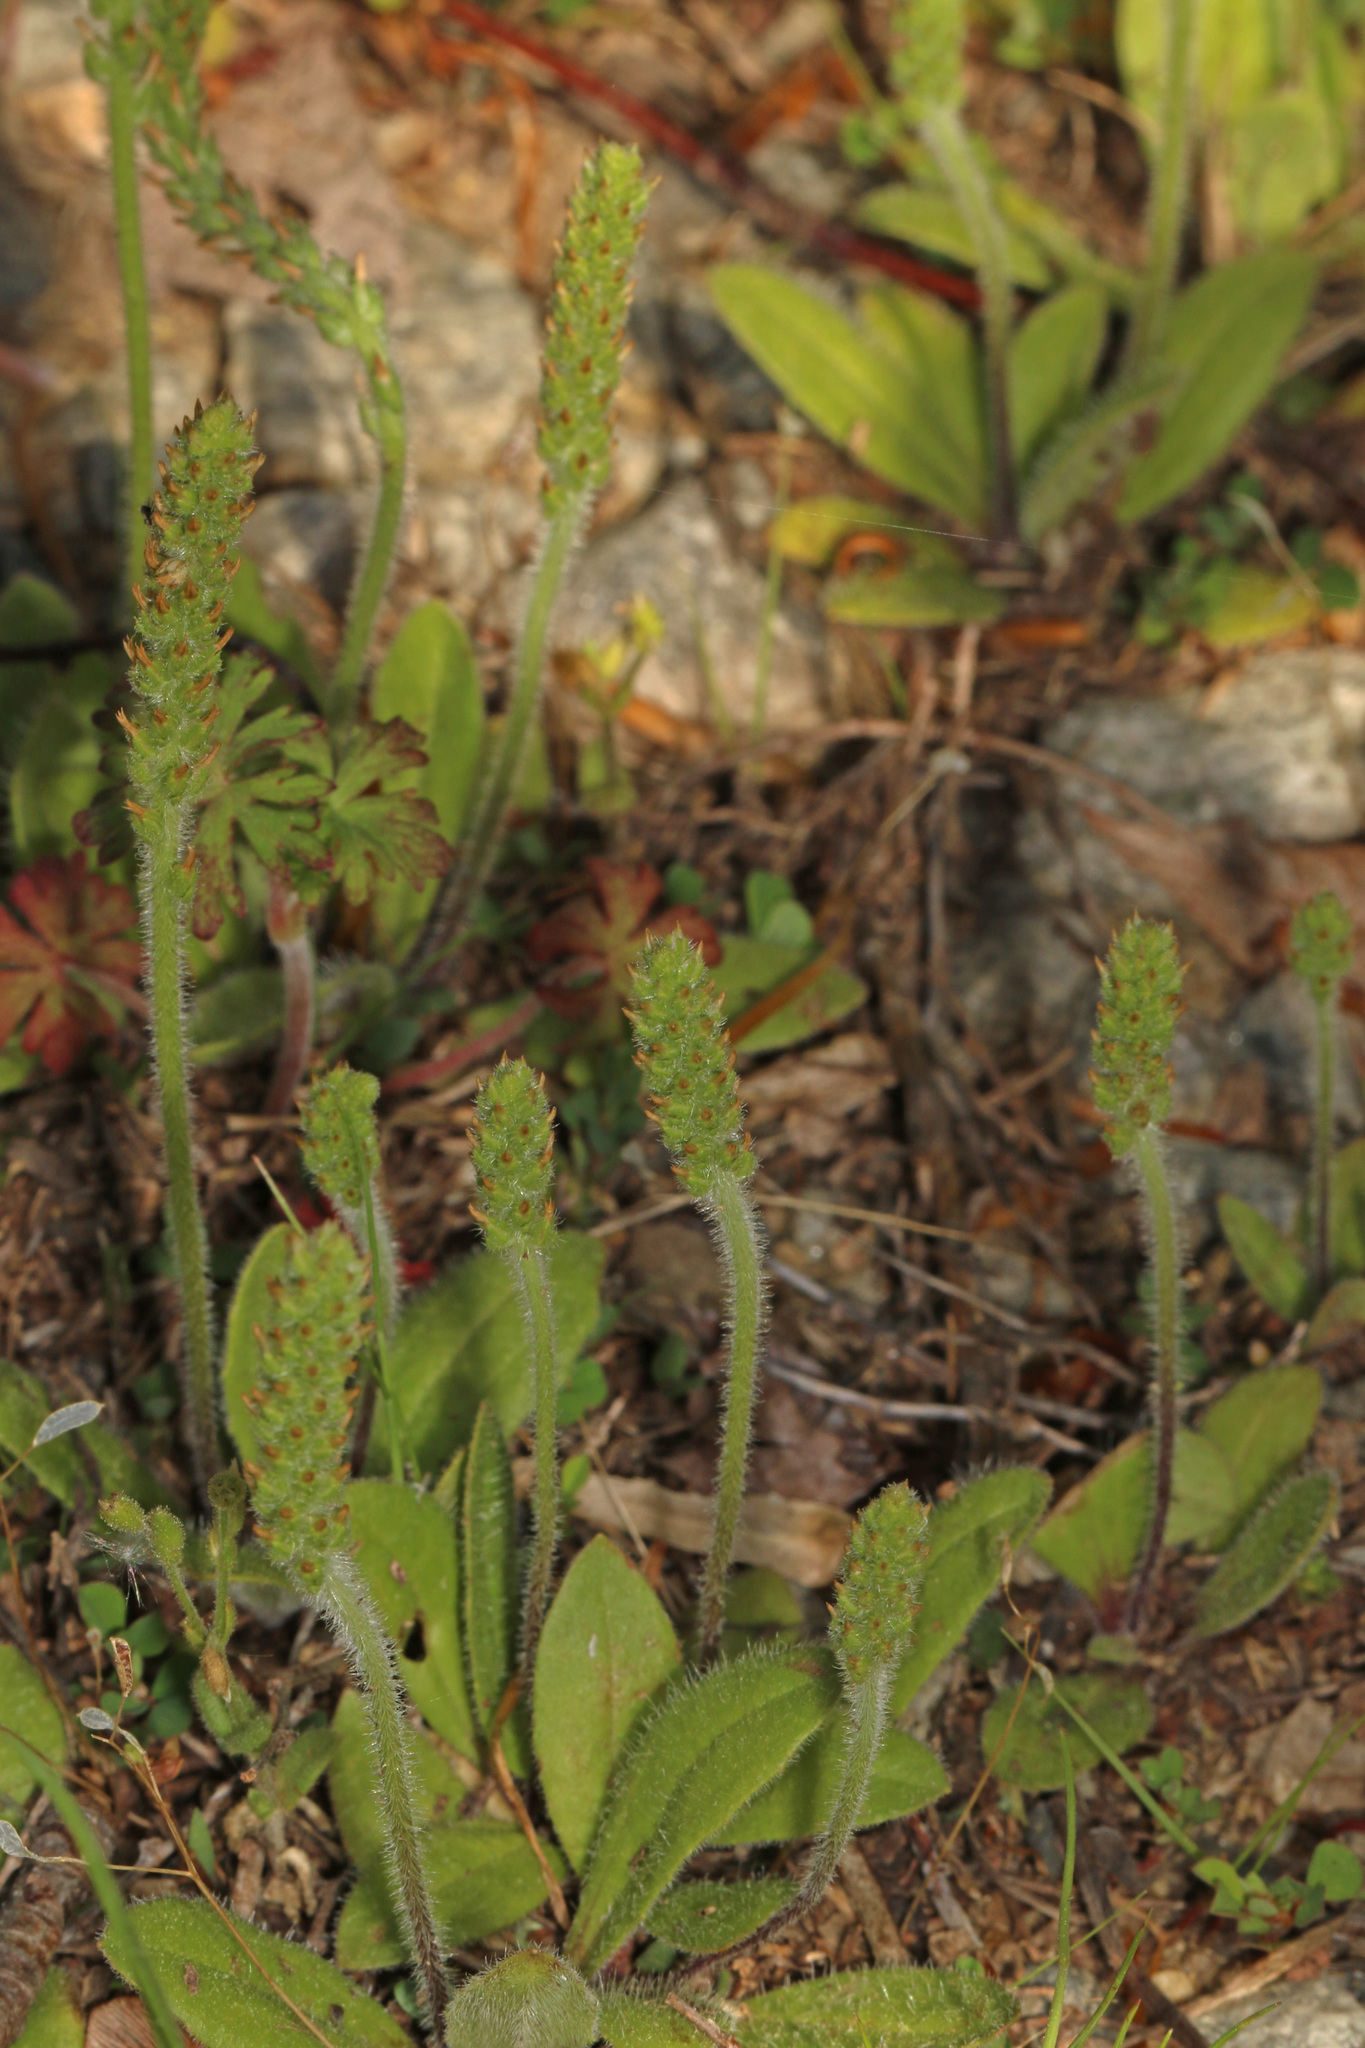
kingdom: Plantae
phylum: Tracheophyta
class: Magnoliopsida
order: Lamiales
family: Plantaginaceae
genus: Plantago
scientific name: Plantago virginica
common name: Hoary plantain
